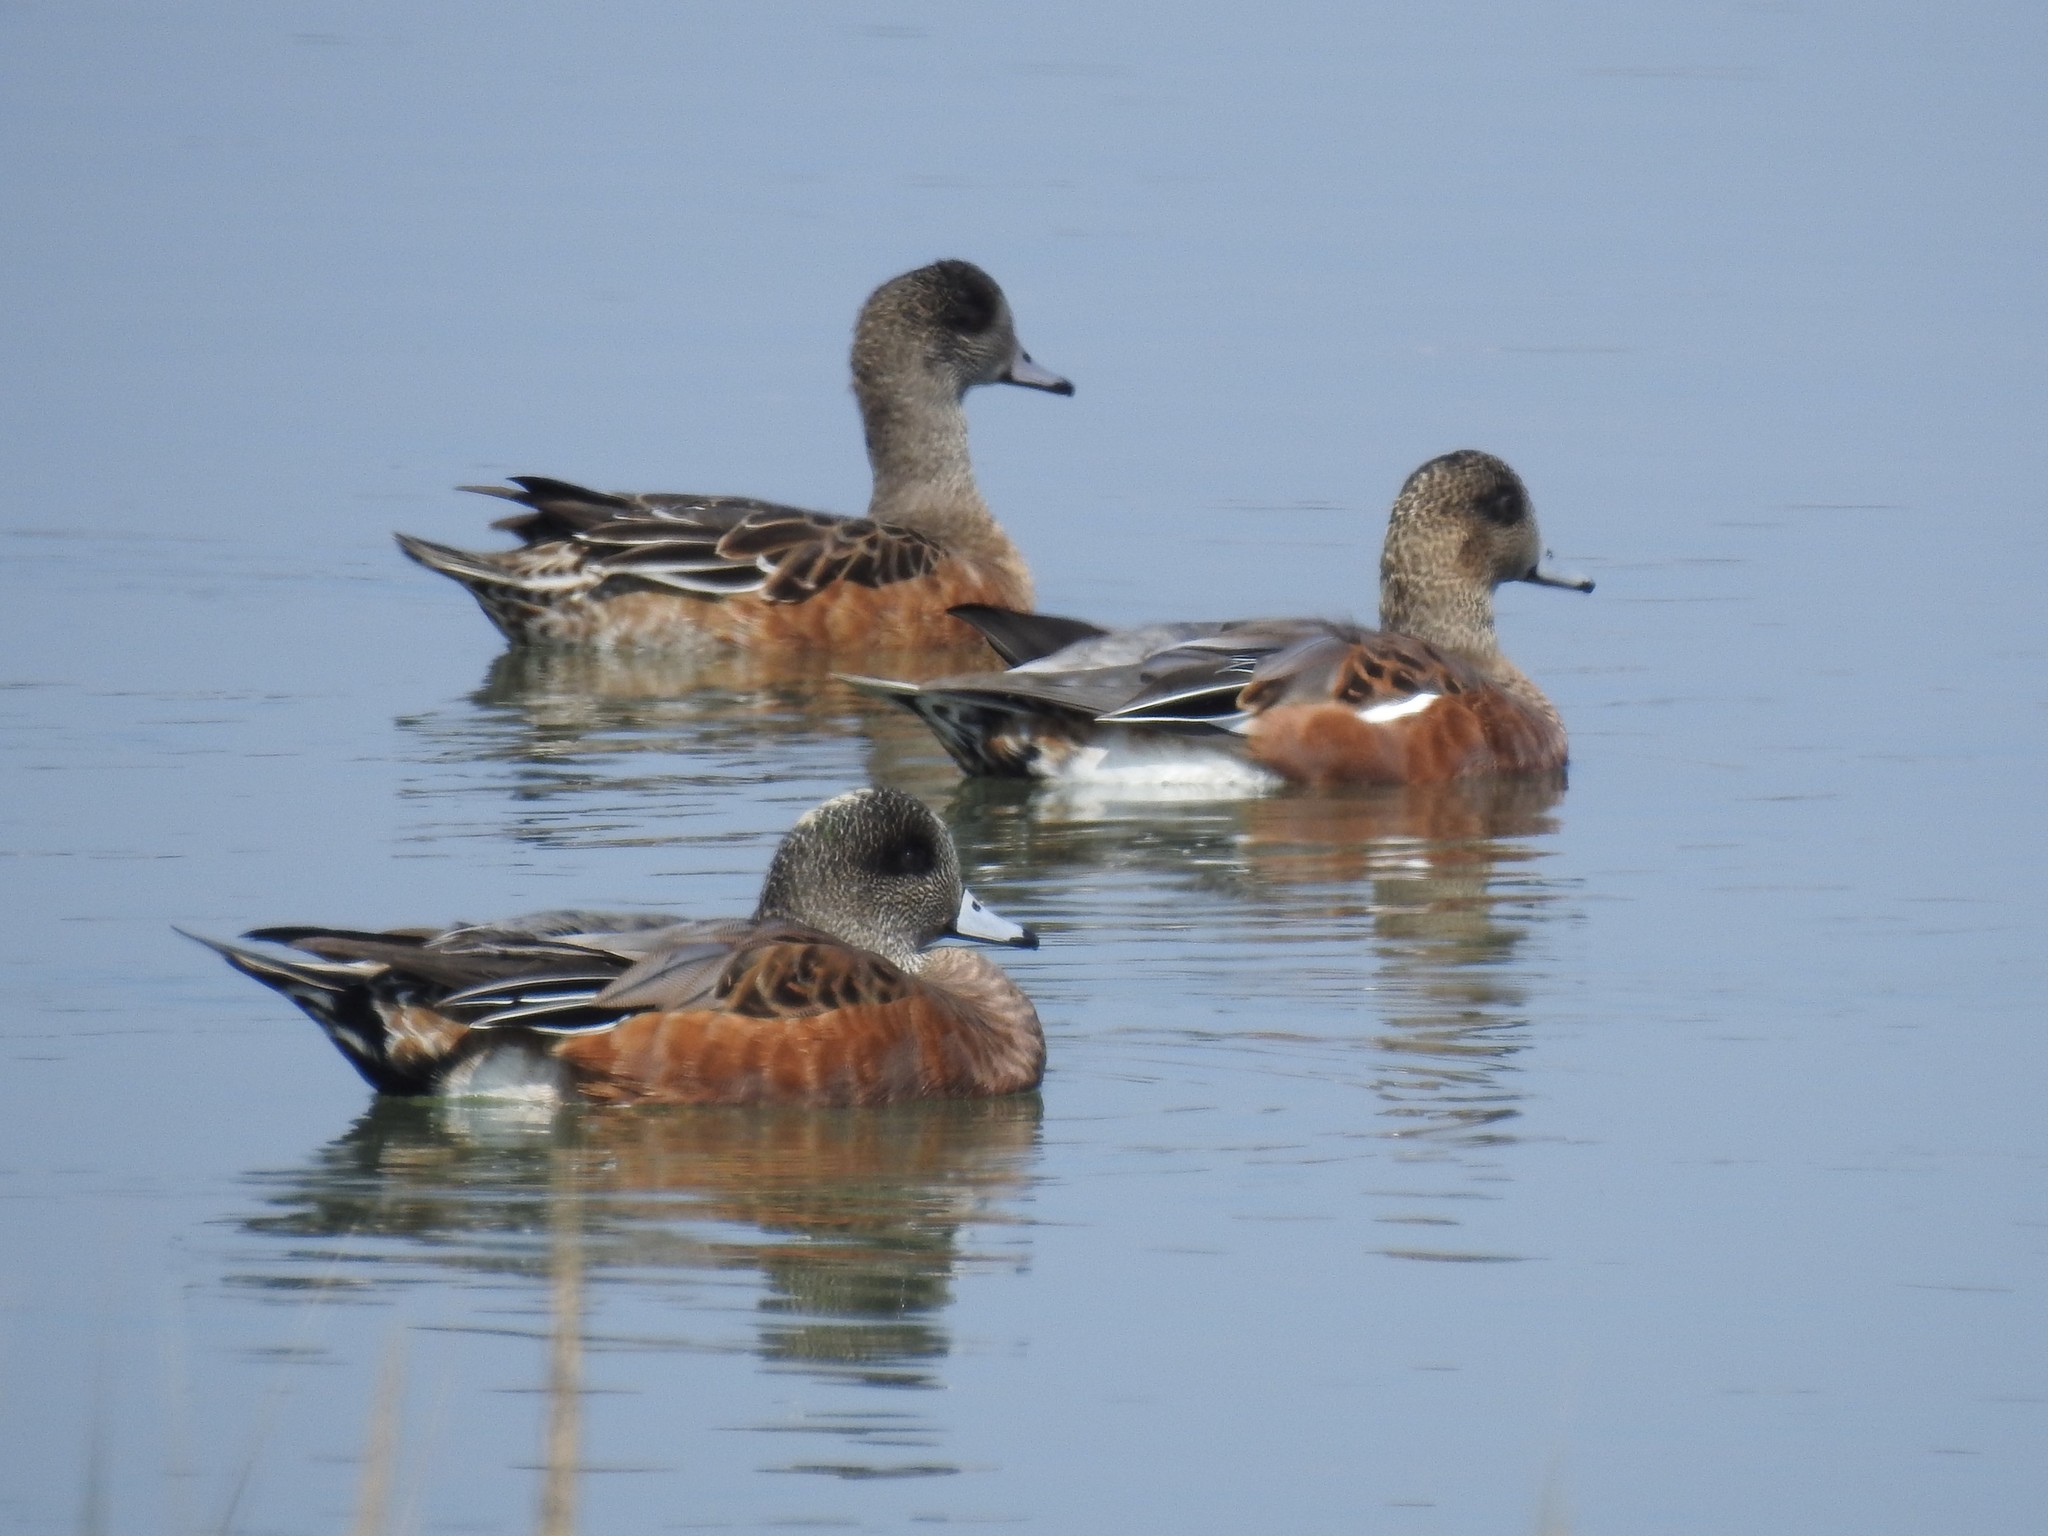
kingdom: Animalia
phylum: Chordata
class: Aves
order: Anseriformes
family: Anatidae
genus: Mareca
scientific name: Mareca americana
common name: American wigeon
